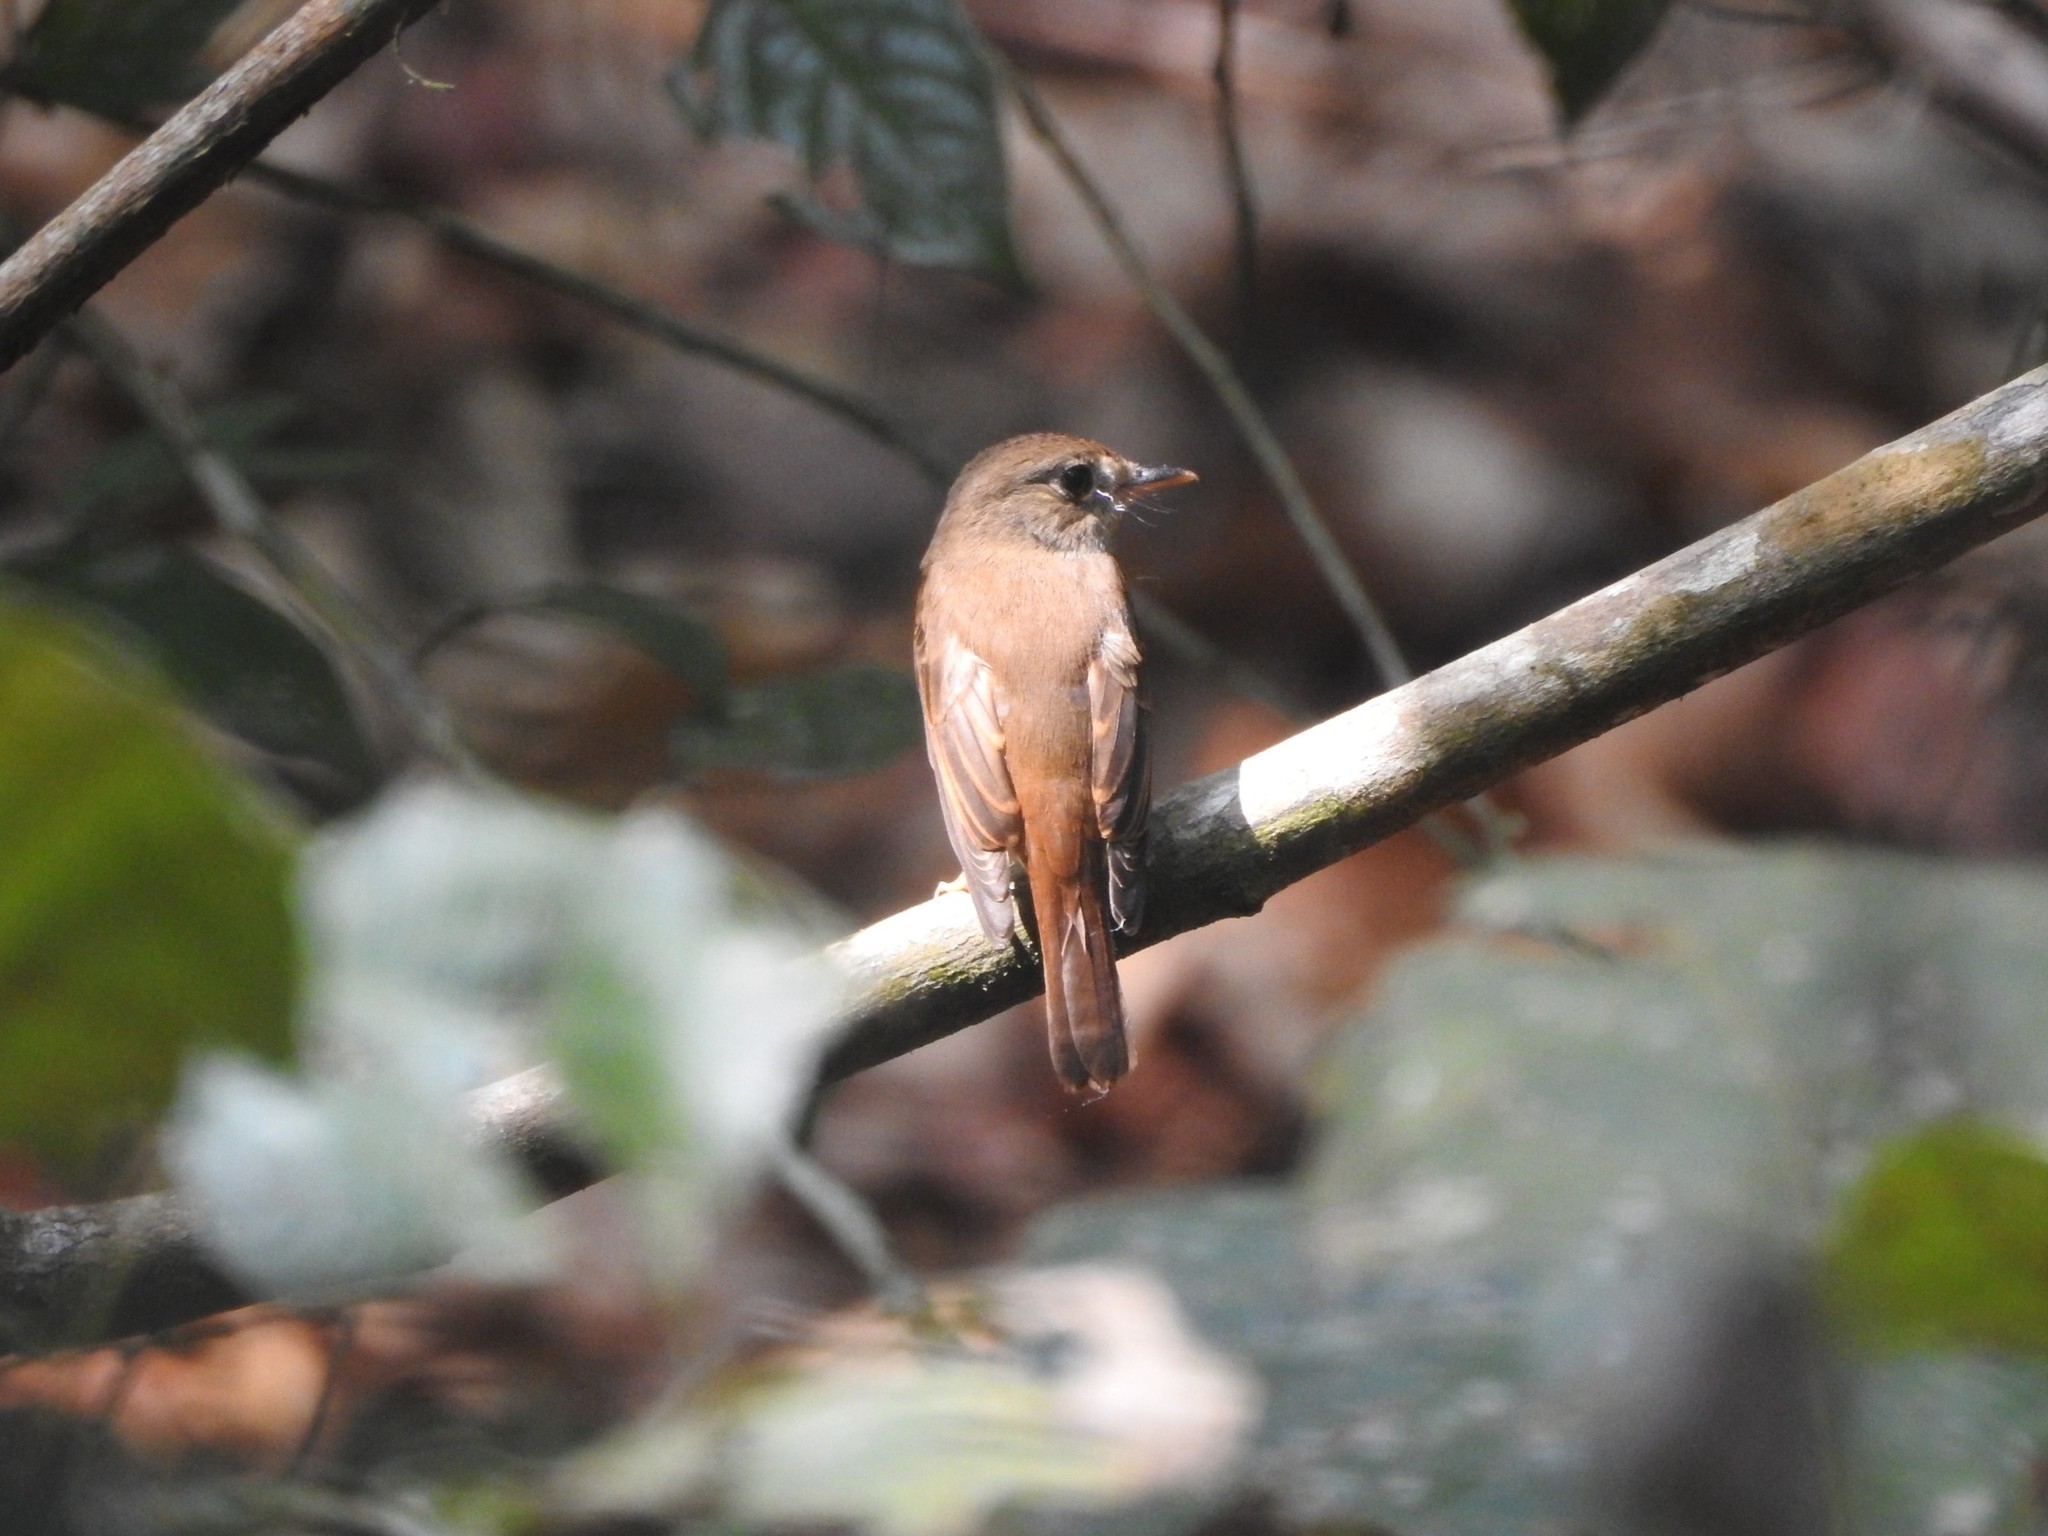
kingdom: Animalia
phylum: Chordata
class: Aves
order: Passeriformes
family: Muscicapidae
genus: Muscicapa
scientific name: Muscicapa ruficauda
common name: Rusty-tailed flycatcher
